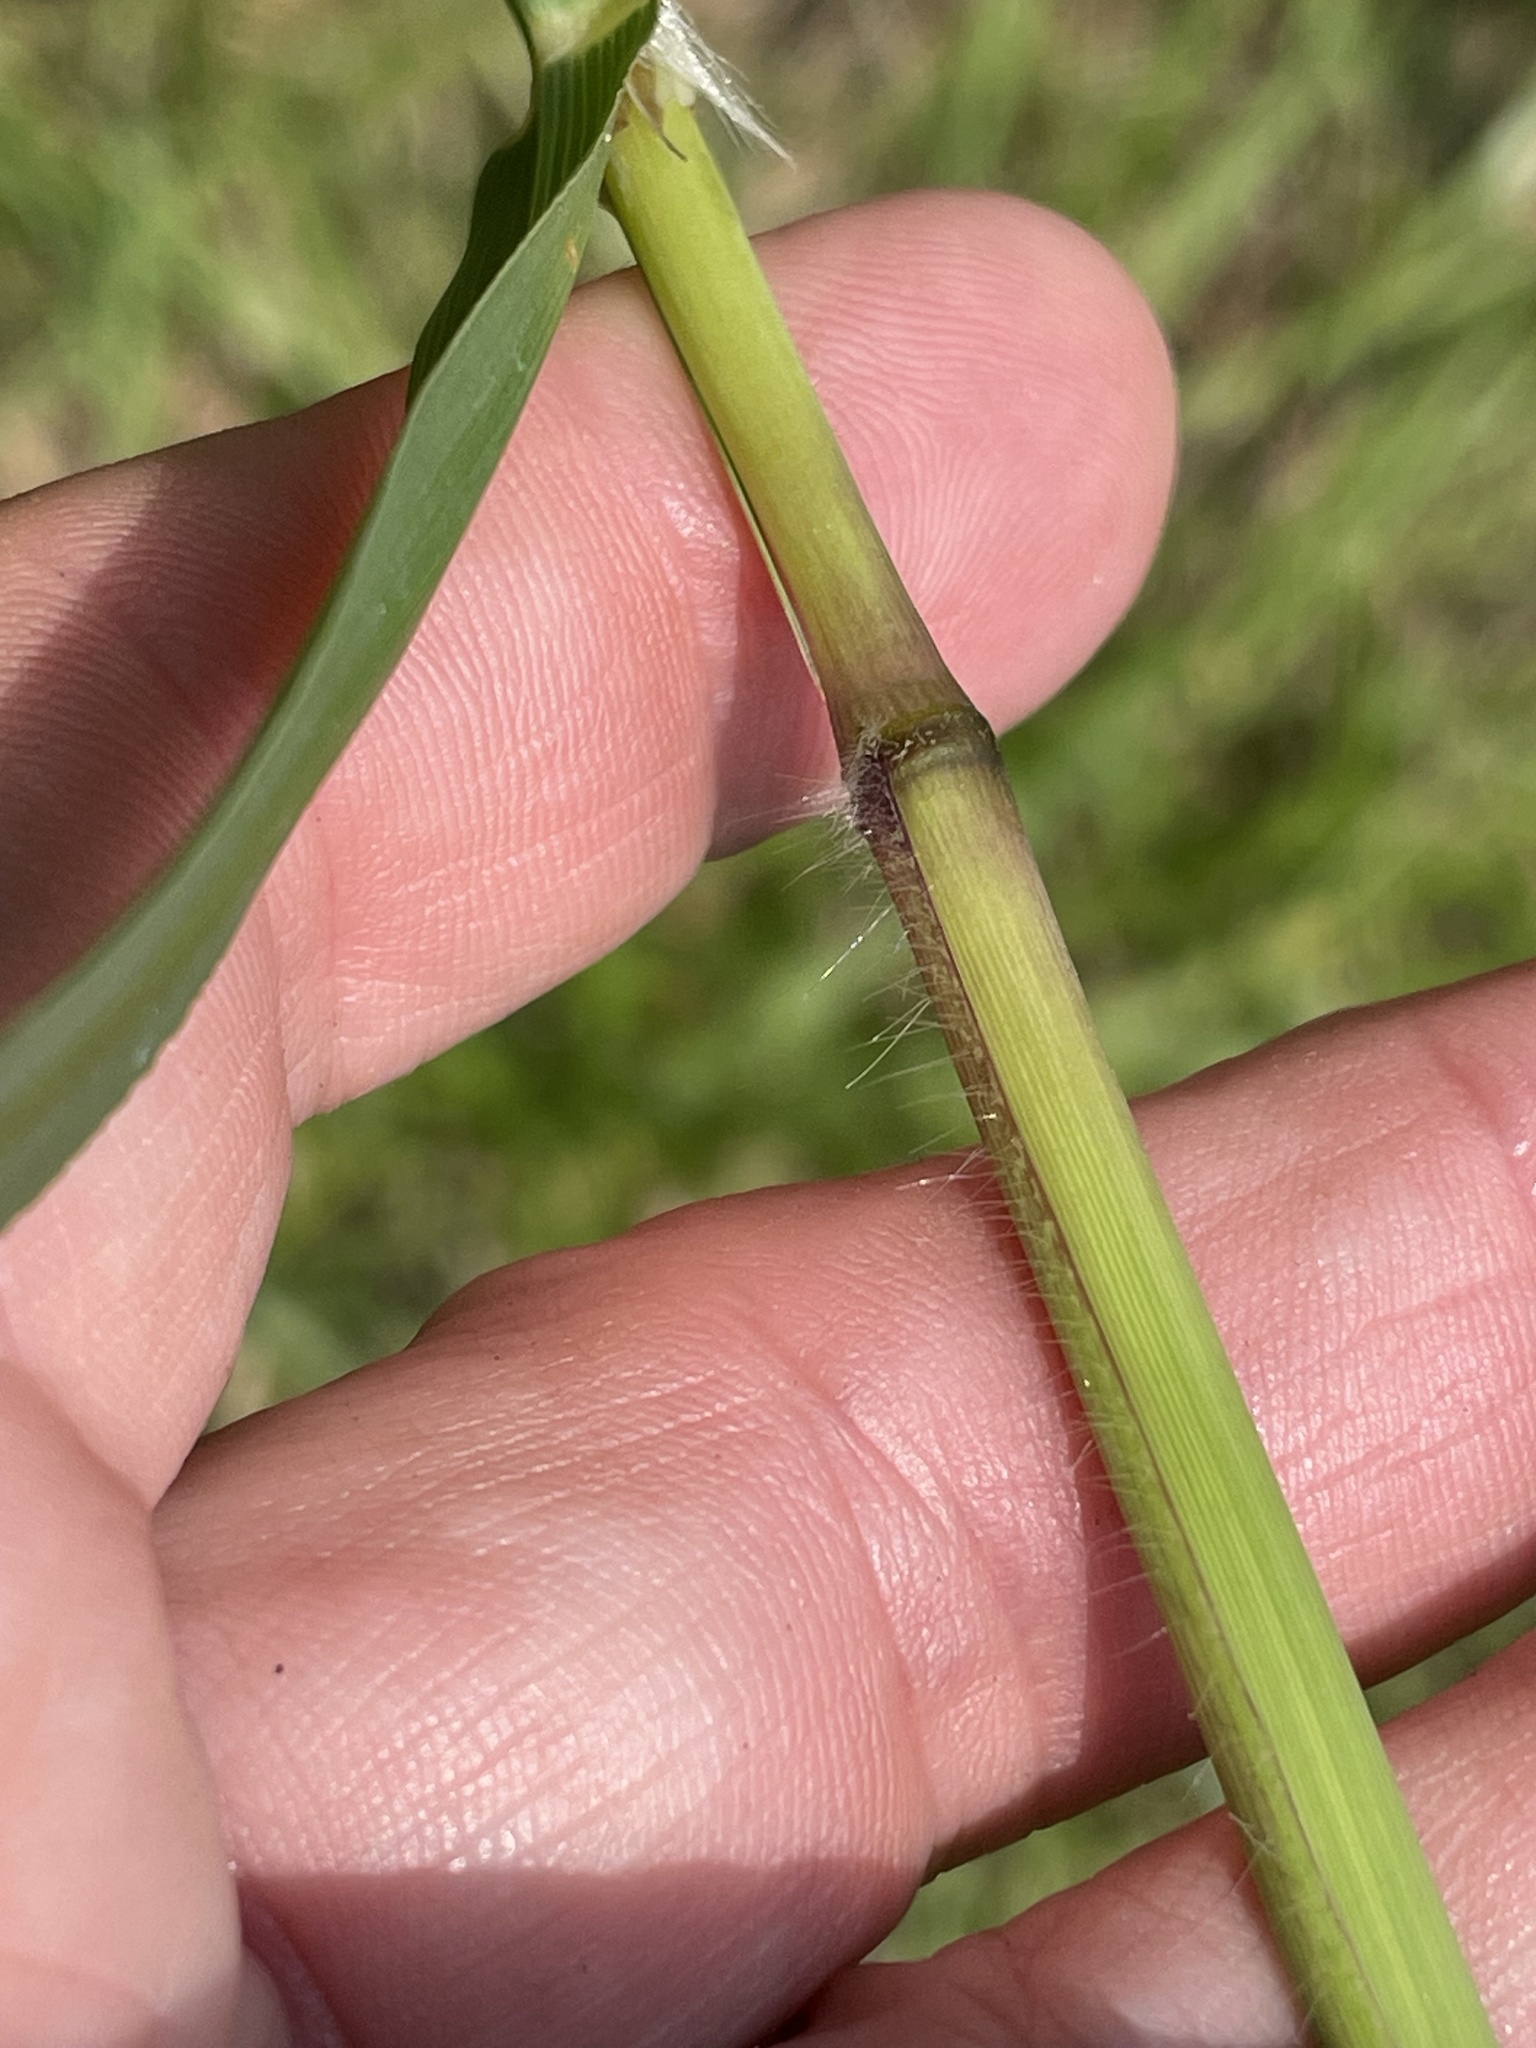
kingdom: Plantae
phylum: Tracheophyta
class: Liliopsida
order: Poales
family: Poaceae
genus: Paspalum
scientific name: Paspalum urvillei
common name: Vasey's grass
